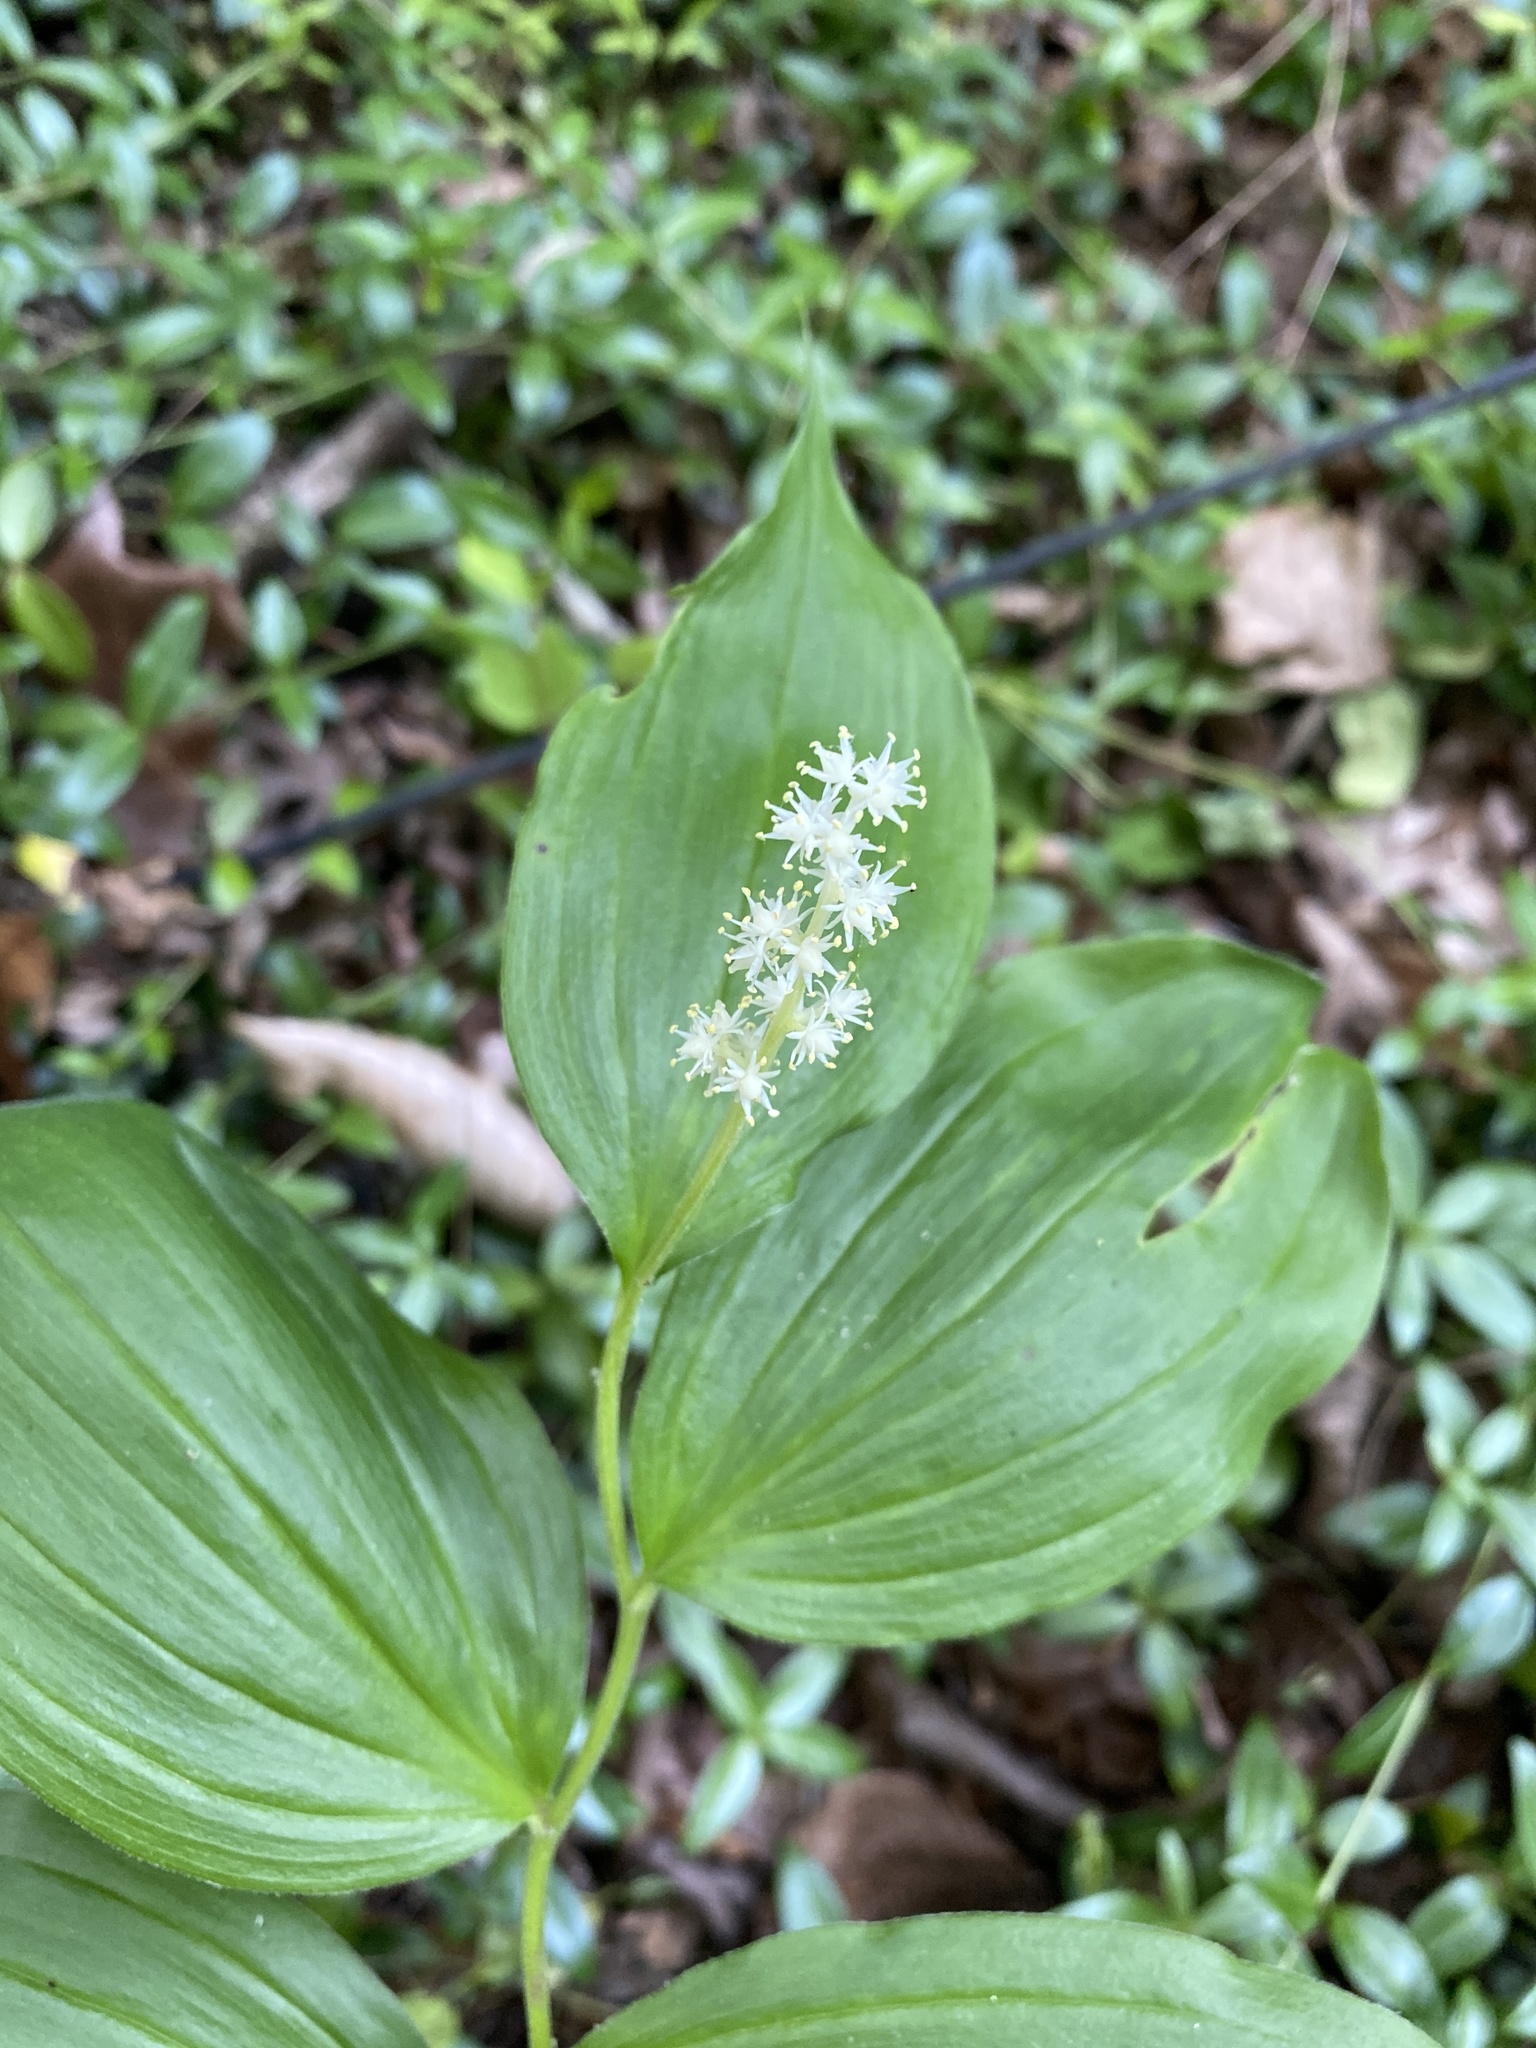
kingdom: Plantae
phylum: Tracheophyta
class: Liliopsida
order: Asparagales
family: Asparagaceae
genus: Maianthemum
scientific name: Maianthemum racemosum
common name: False spikenard
